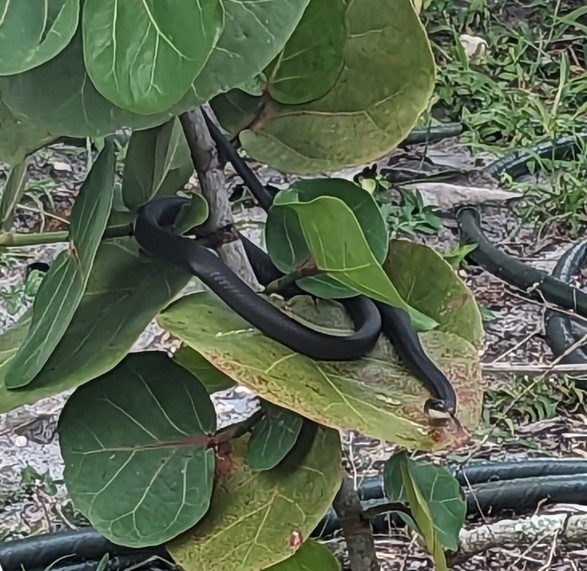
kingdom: Animalia
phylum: Chordata
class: Squamata
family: Colubridae
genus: Coluber
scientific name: Coluber constrictor
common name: Eastern racer
